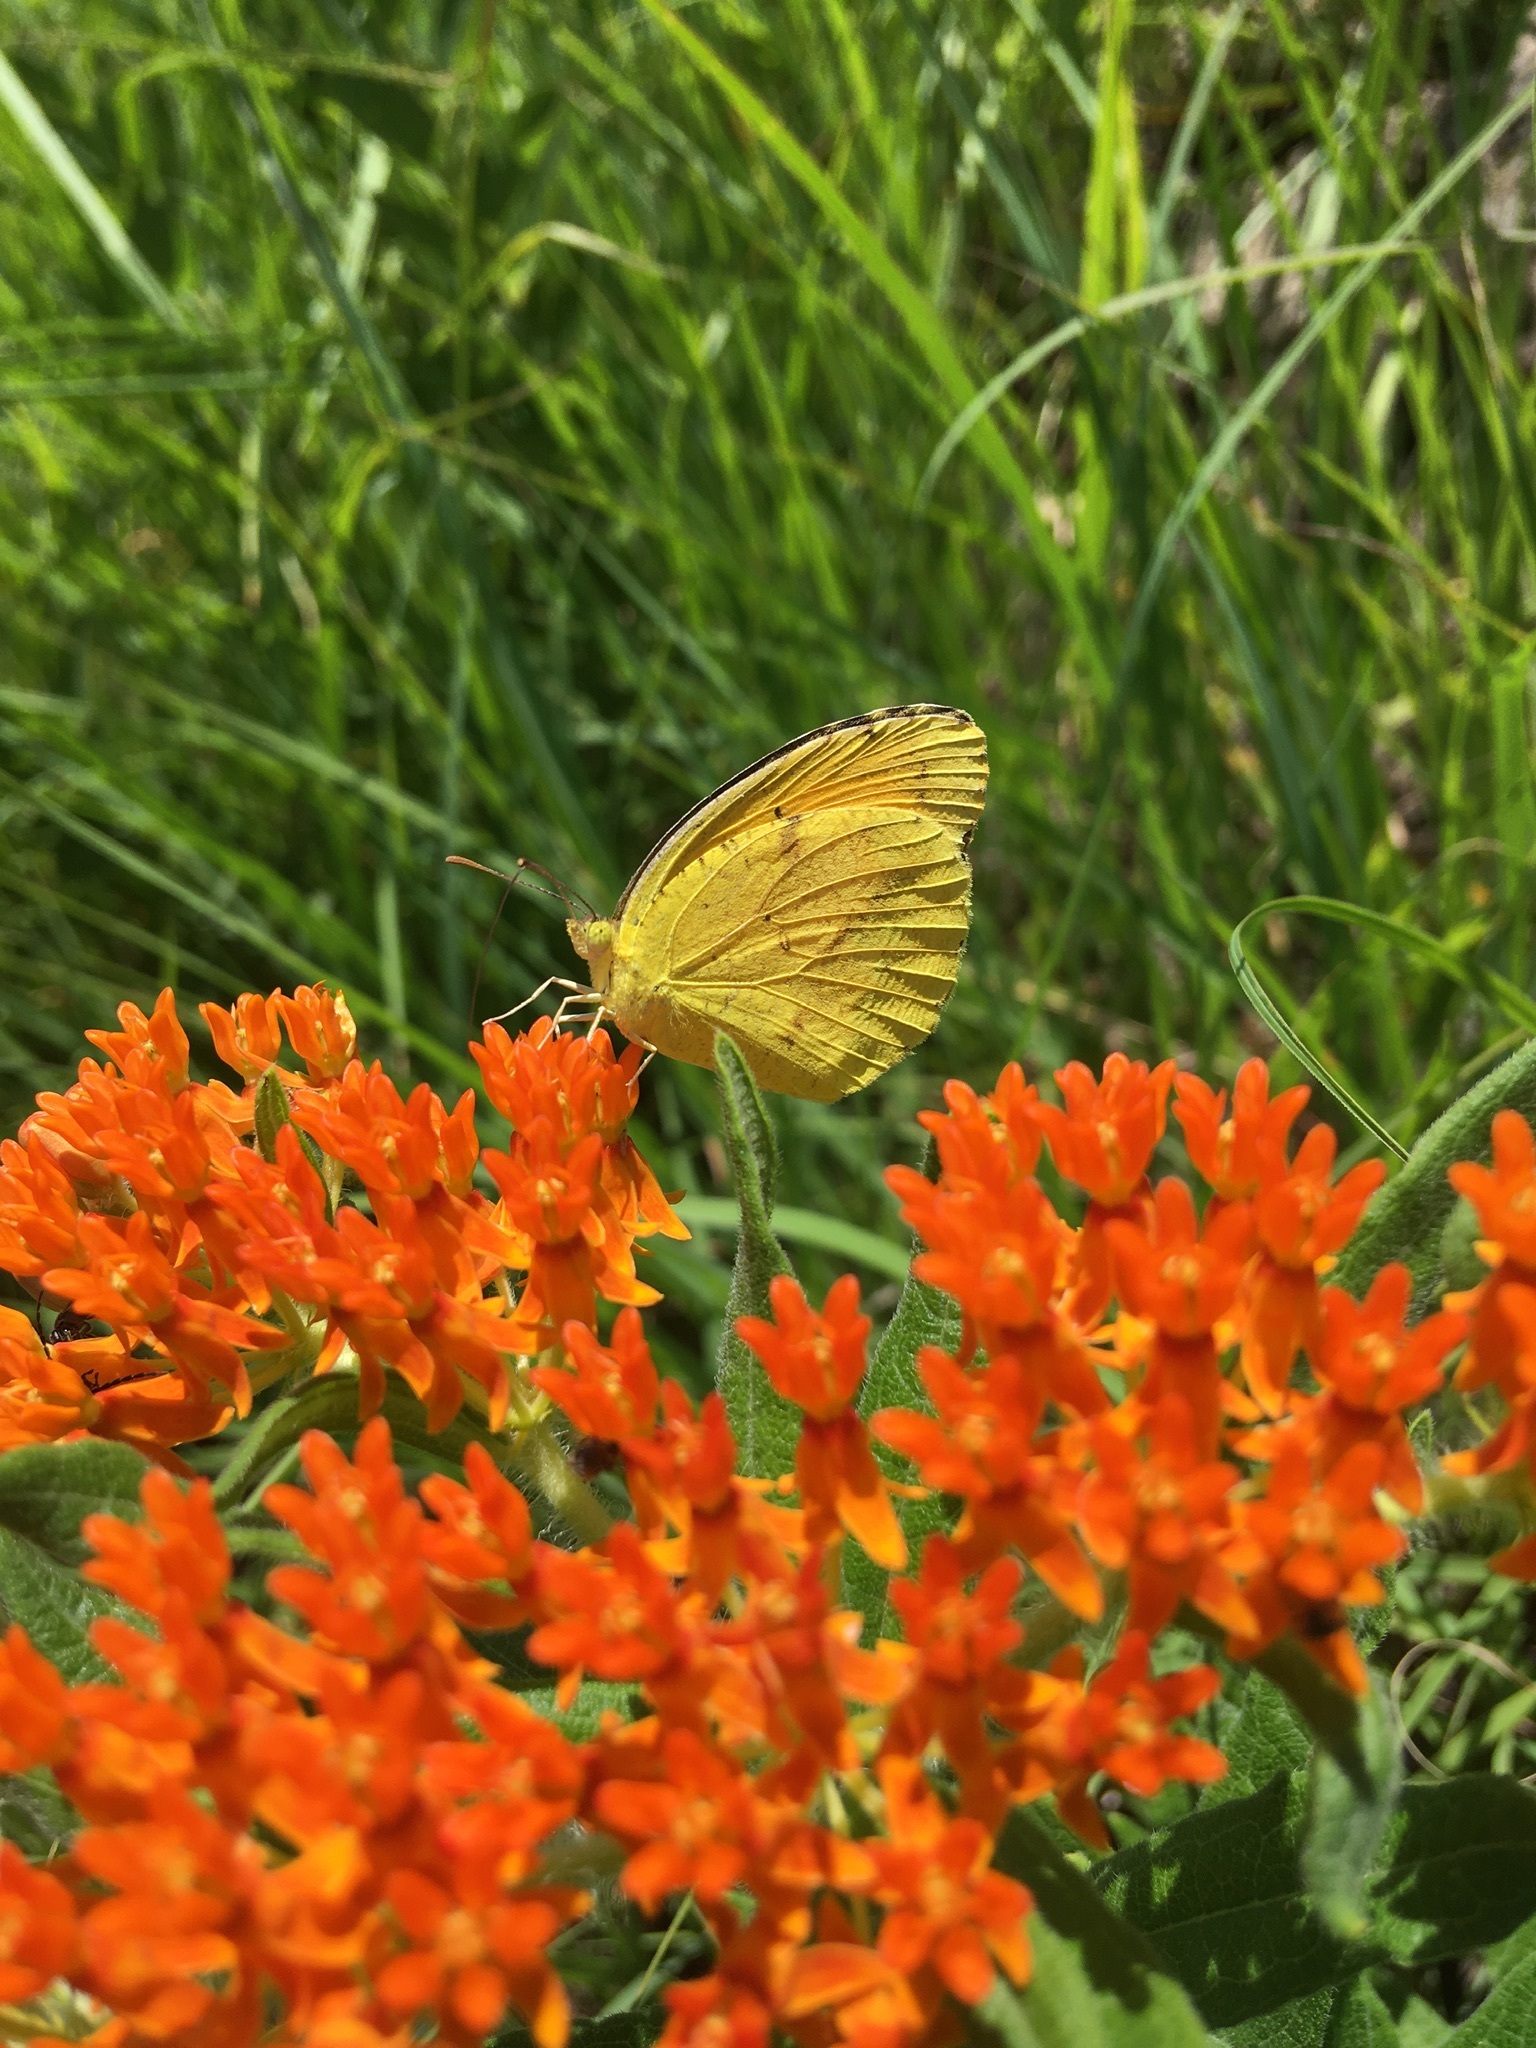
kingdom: Animalia
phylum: Arthropoda
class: Insecta
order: Lepidoptera
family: Pieridae
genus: Abaeis
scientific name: Abaeis nicippe
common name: Sleepy orange
